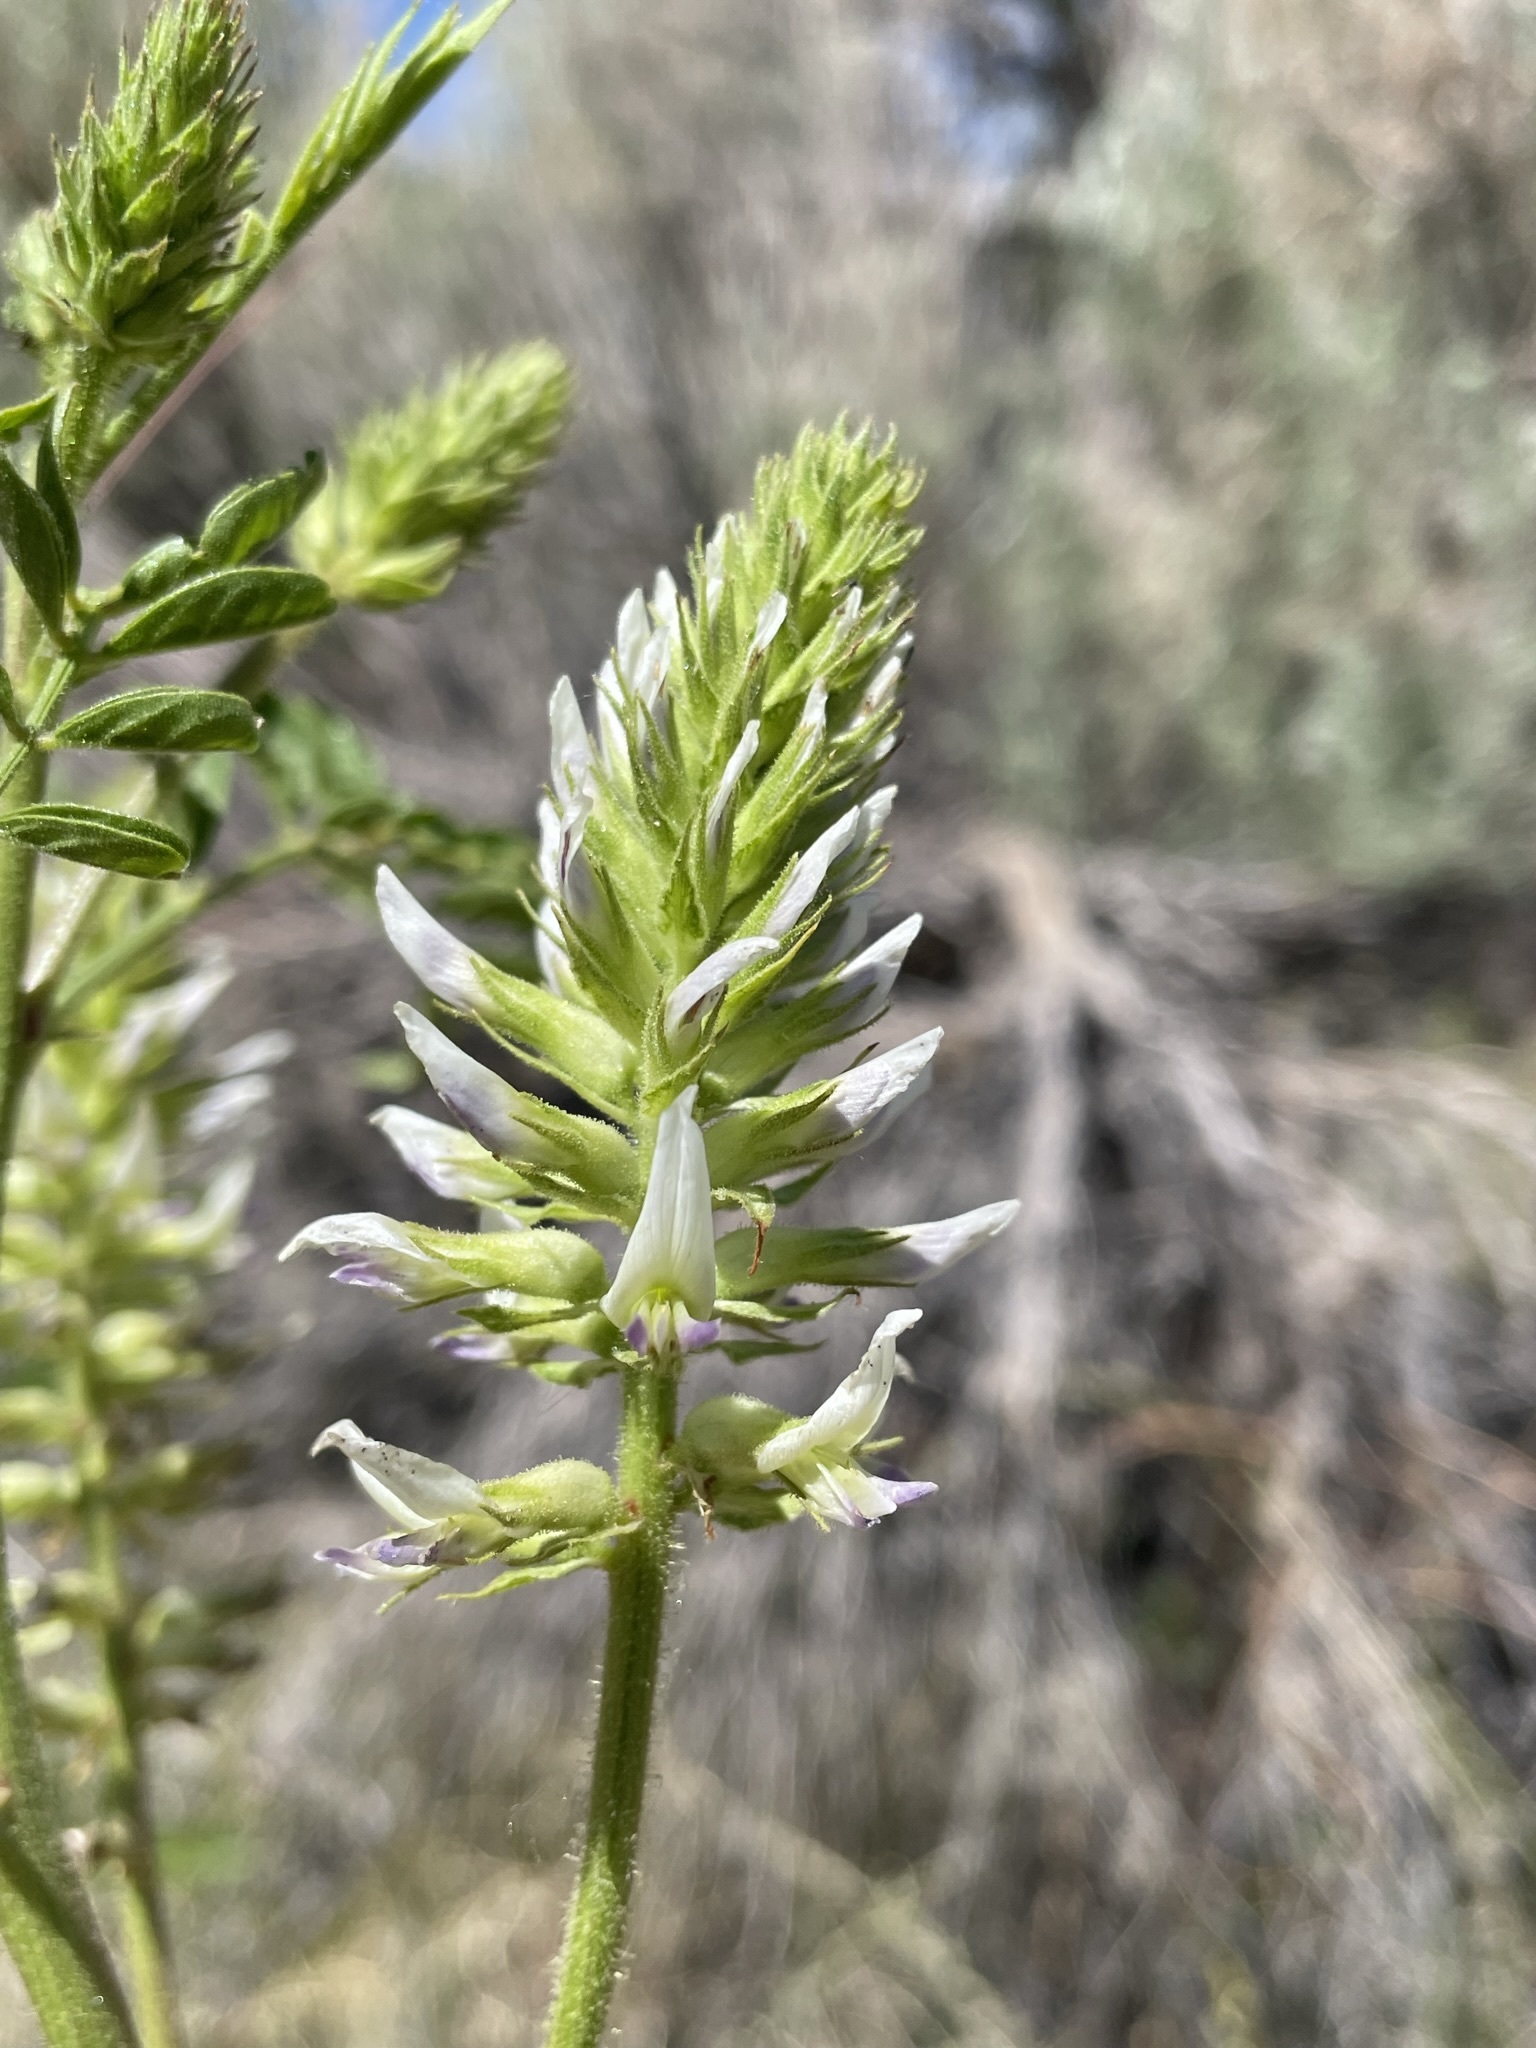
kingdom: Plantae
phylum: Tracheophyta
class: Magnoliopsida
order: Fabales
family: Fabaceae
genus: Glycyrrhiza
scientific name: Glycyrrhiza lepidota
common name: American liquorice
